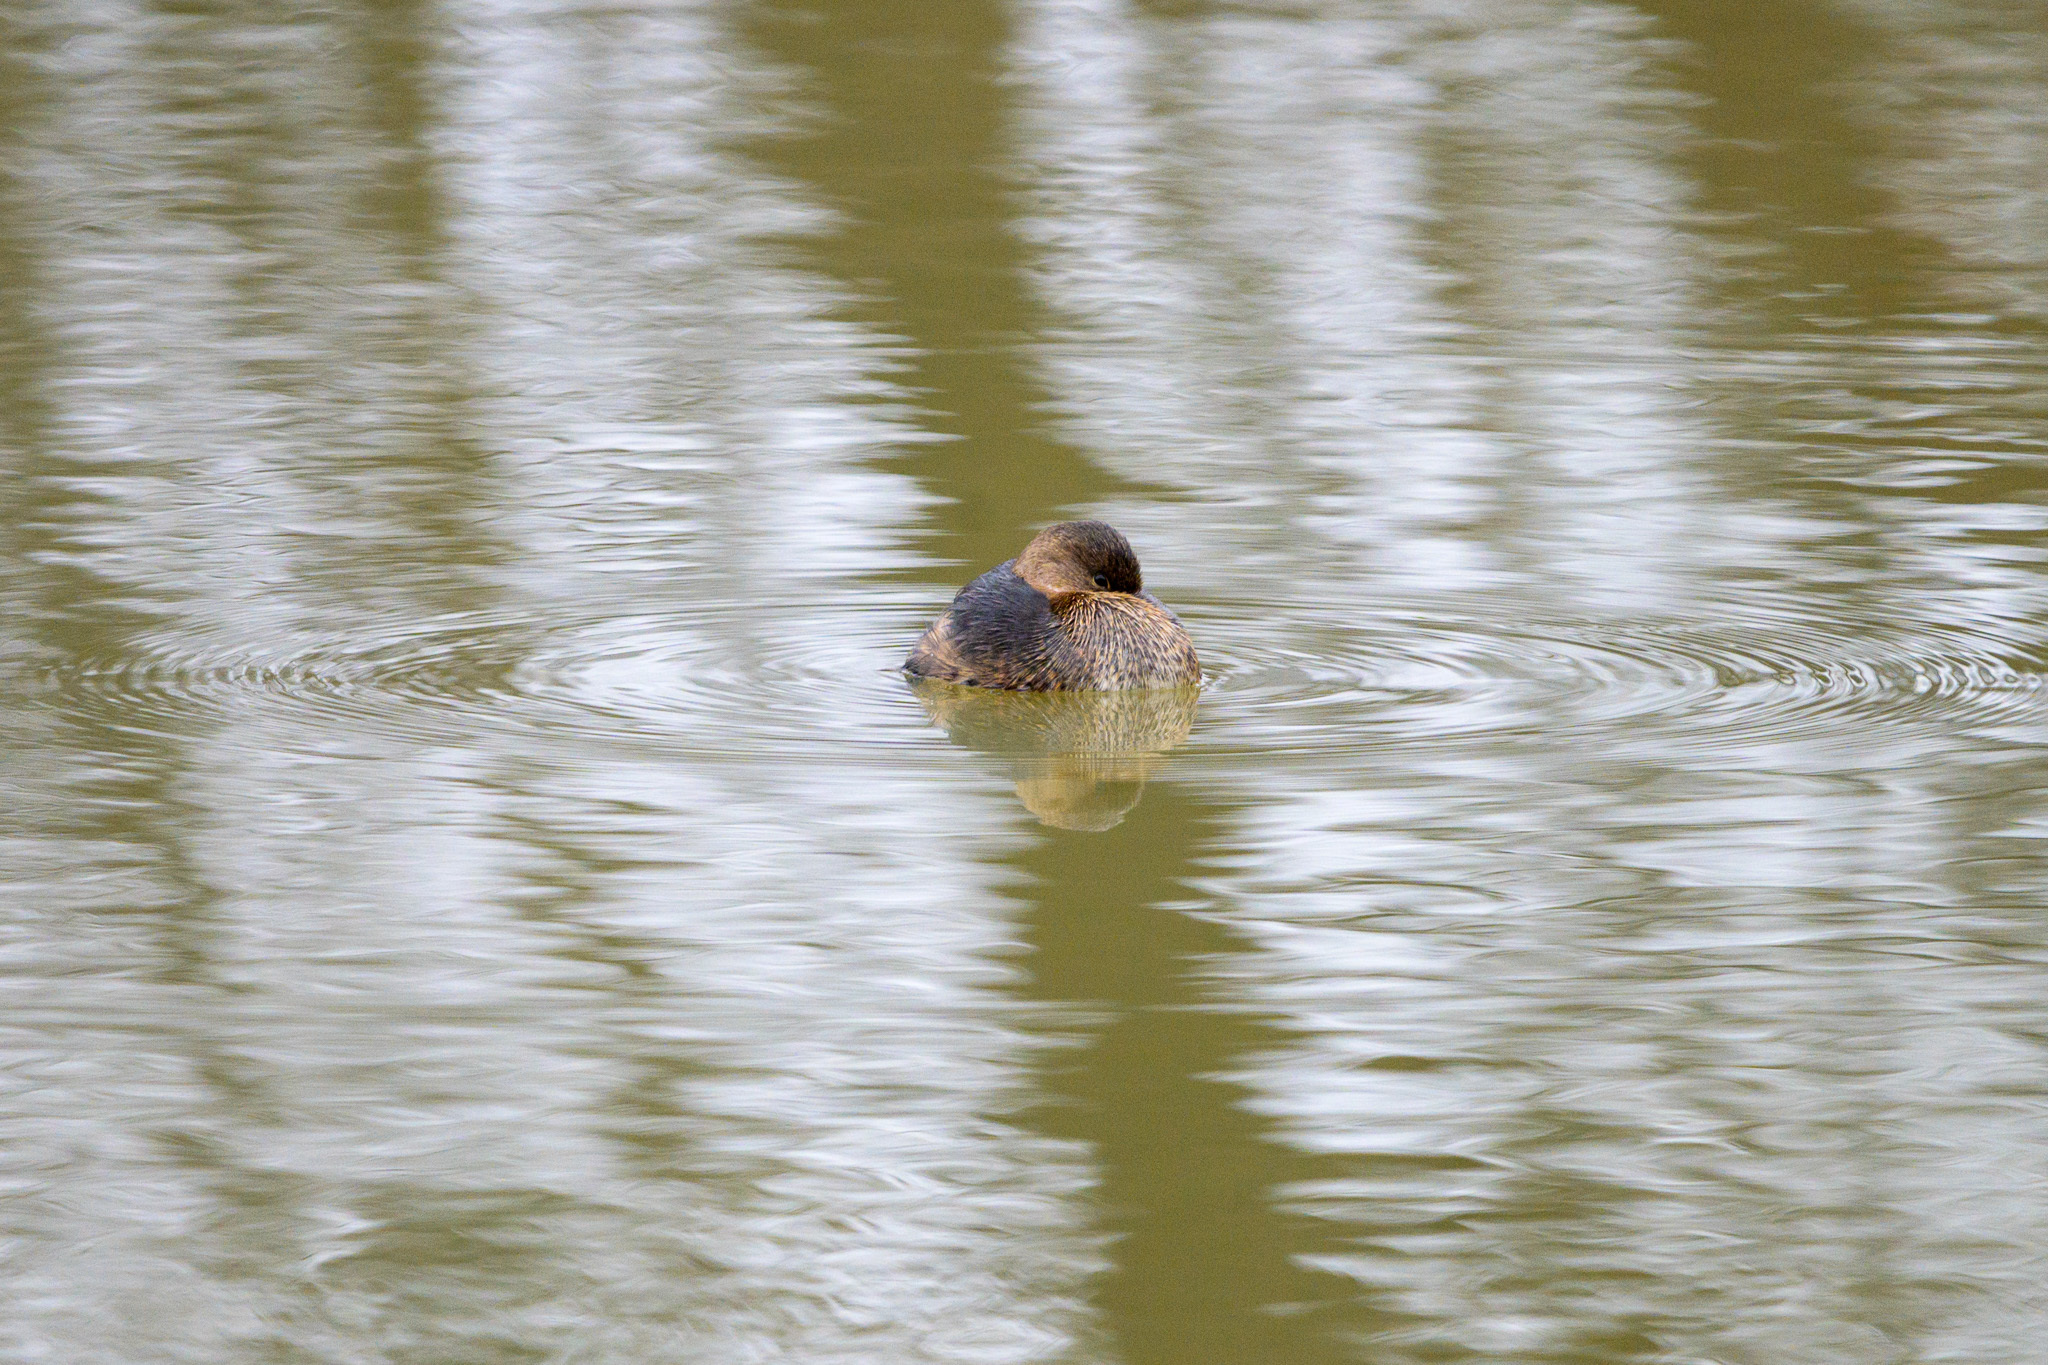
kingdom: Animalia
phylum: Chordata
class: Aves
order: Podicipediformes
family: Podicipedidae
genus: Podilymbus
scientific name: Podilymbus podiceps
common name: Pied-billed grebe
